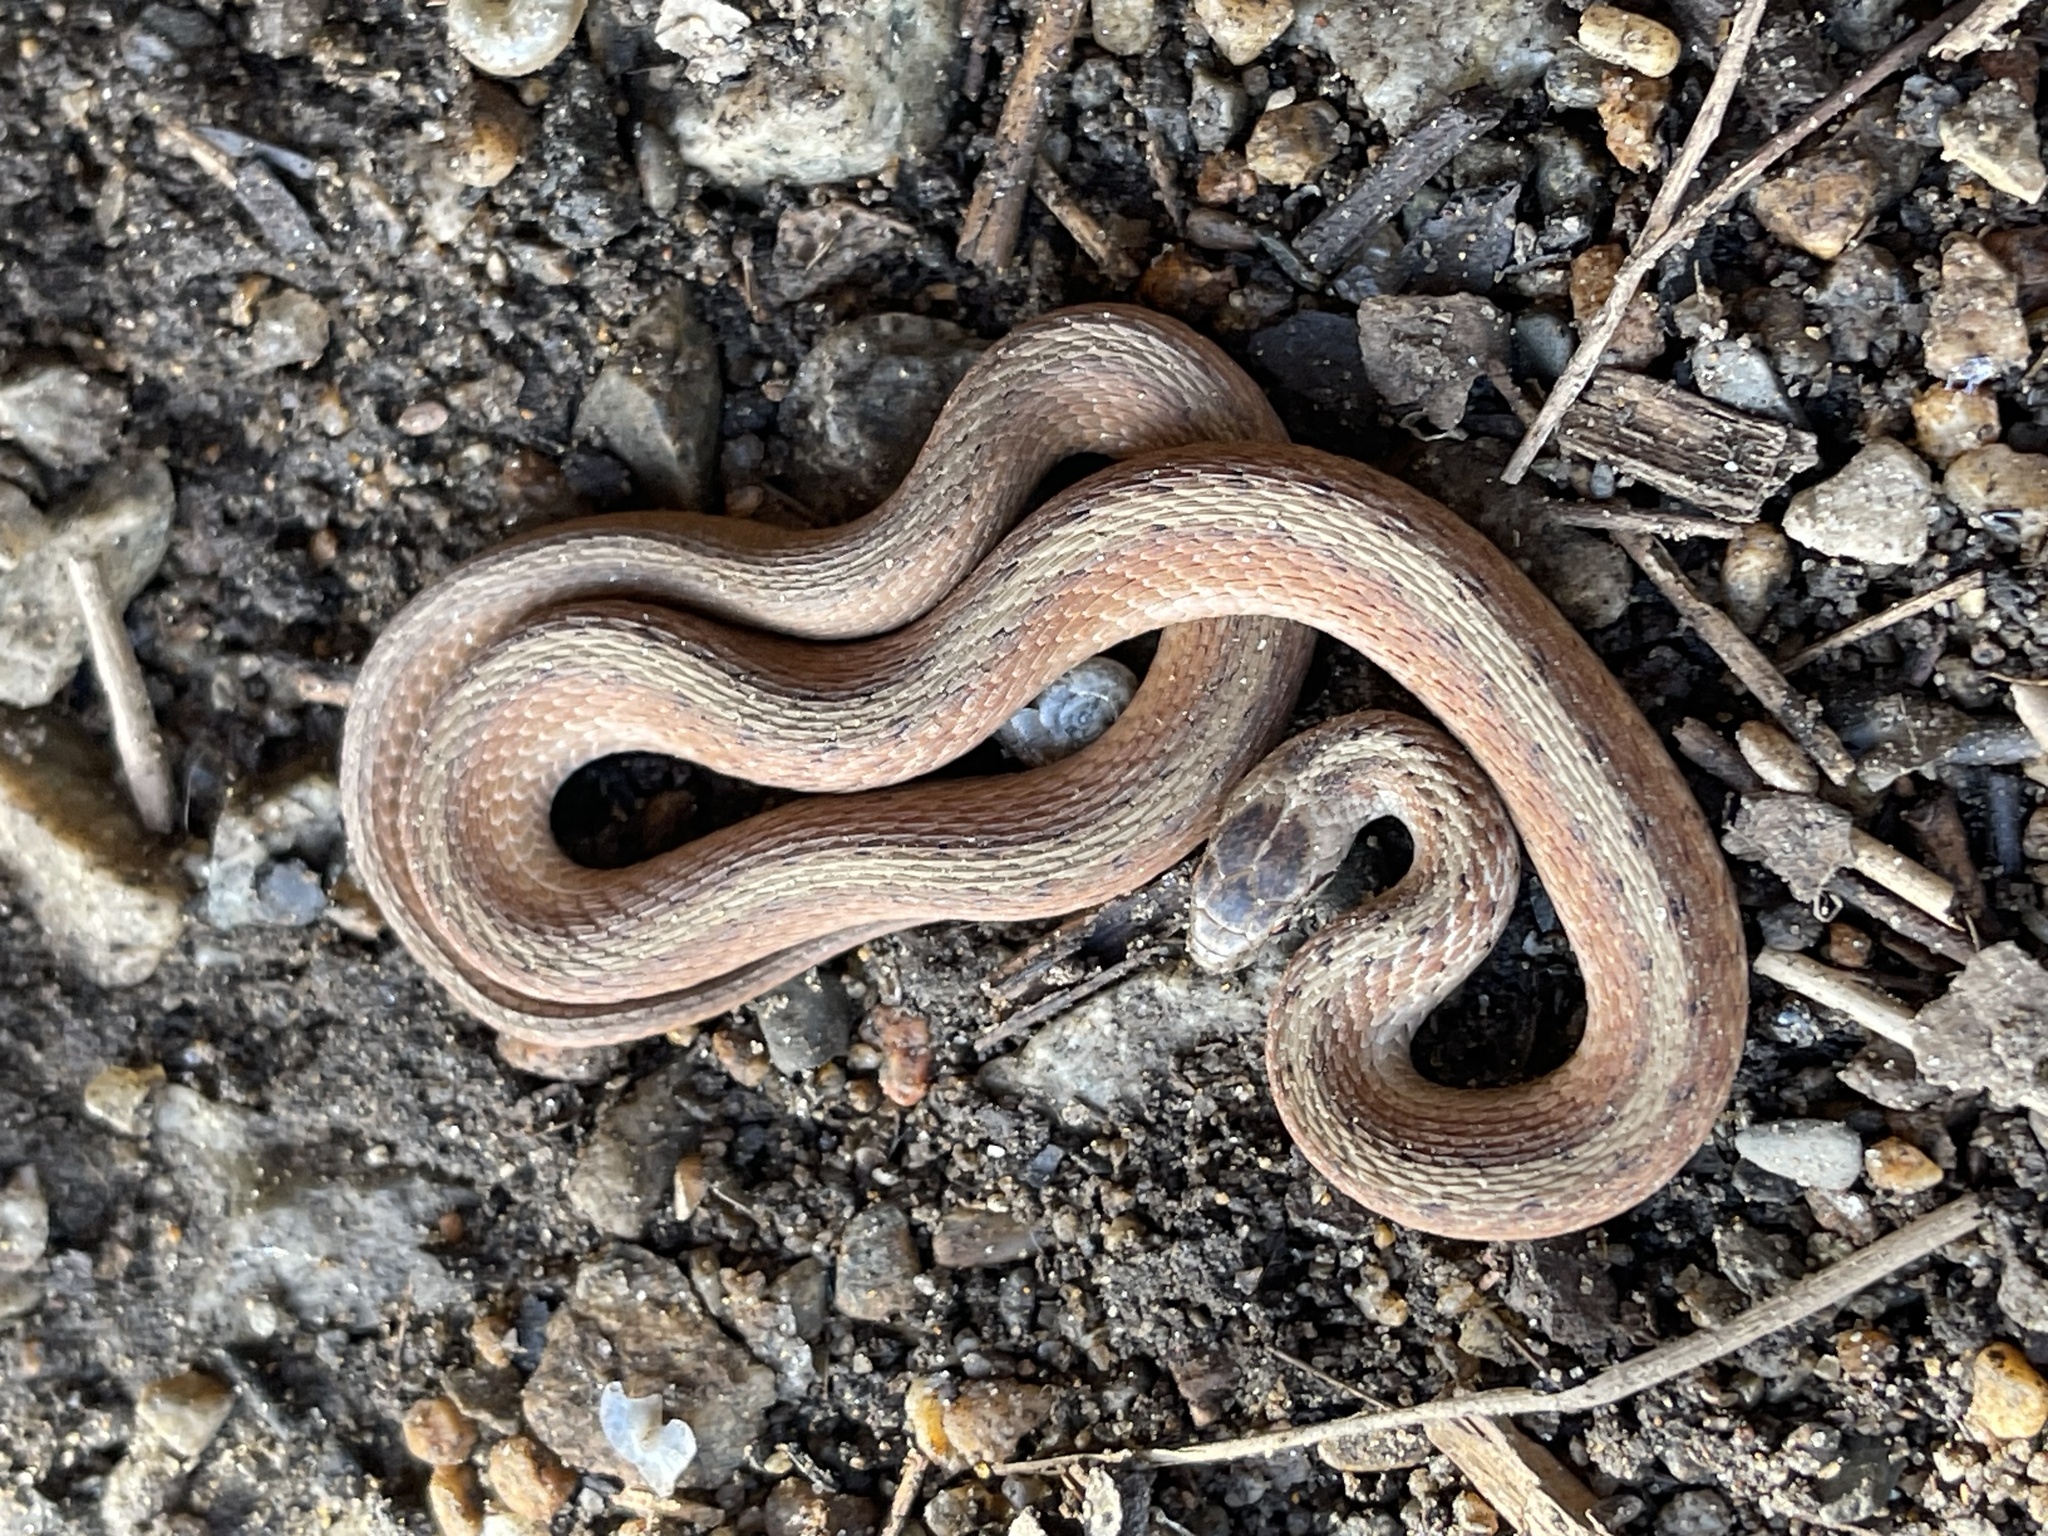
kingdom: Animalia
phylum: Chordata
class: Squamata
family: Colubridae
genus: Storeria
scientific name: Storeria dekayi
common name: (dekay’s) brown snake
